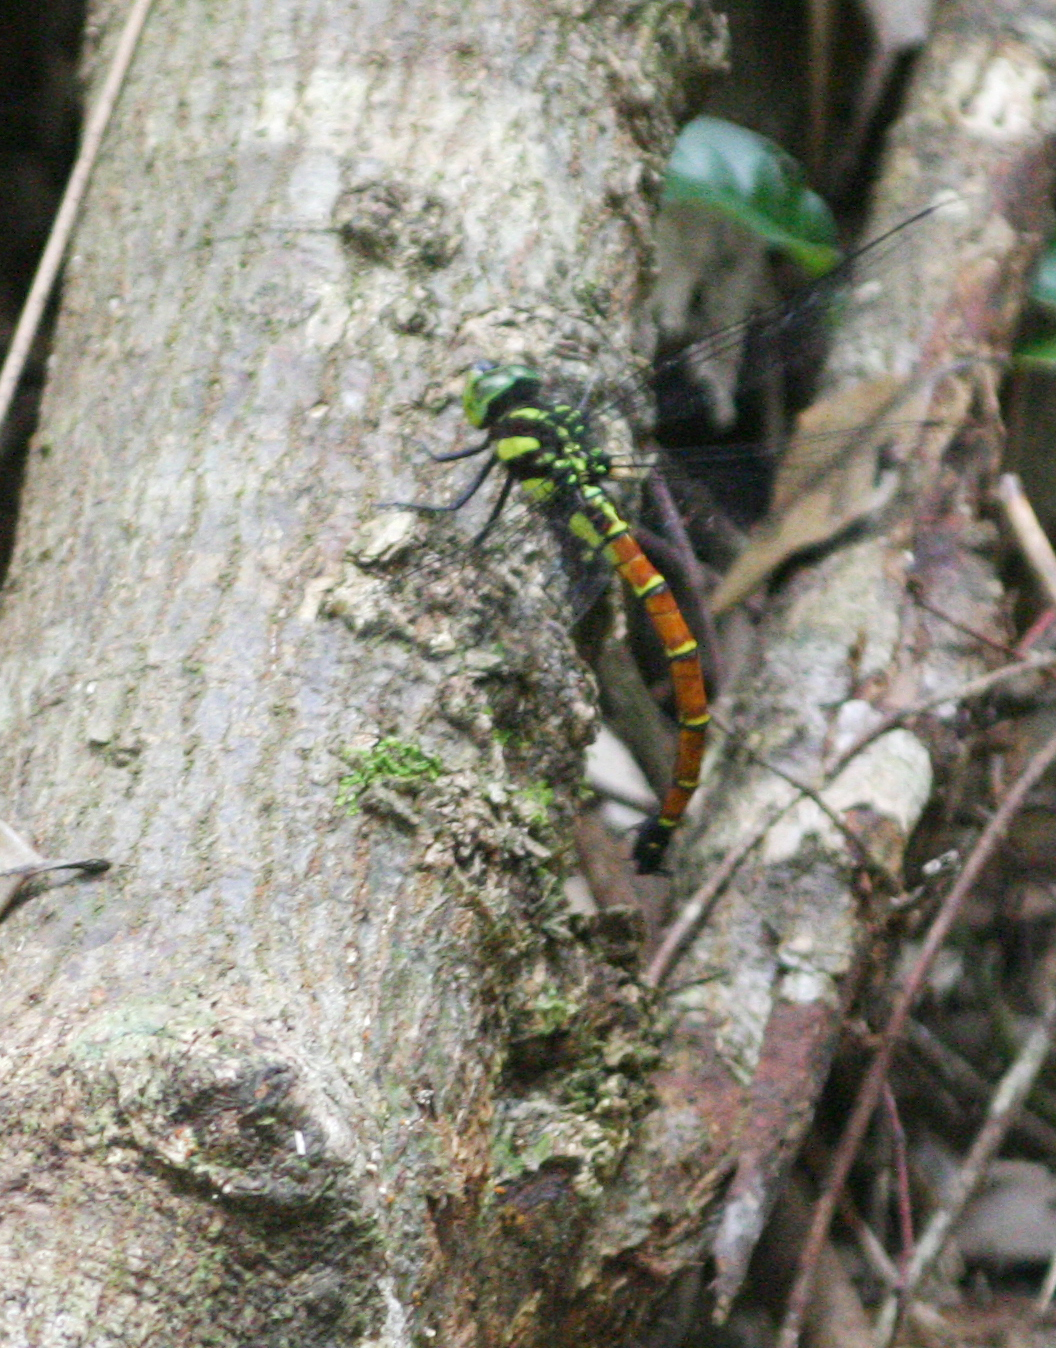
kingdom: Animalia
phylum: Arthropoda
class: Insecta
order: Odonata
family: Aeshnidae
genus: Indaeschna
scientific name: Indaeschna
